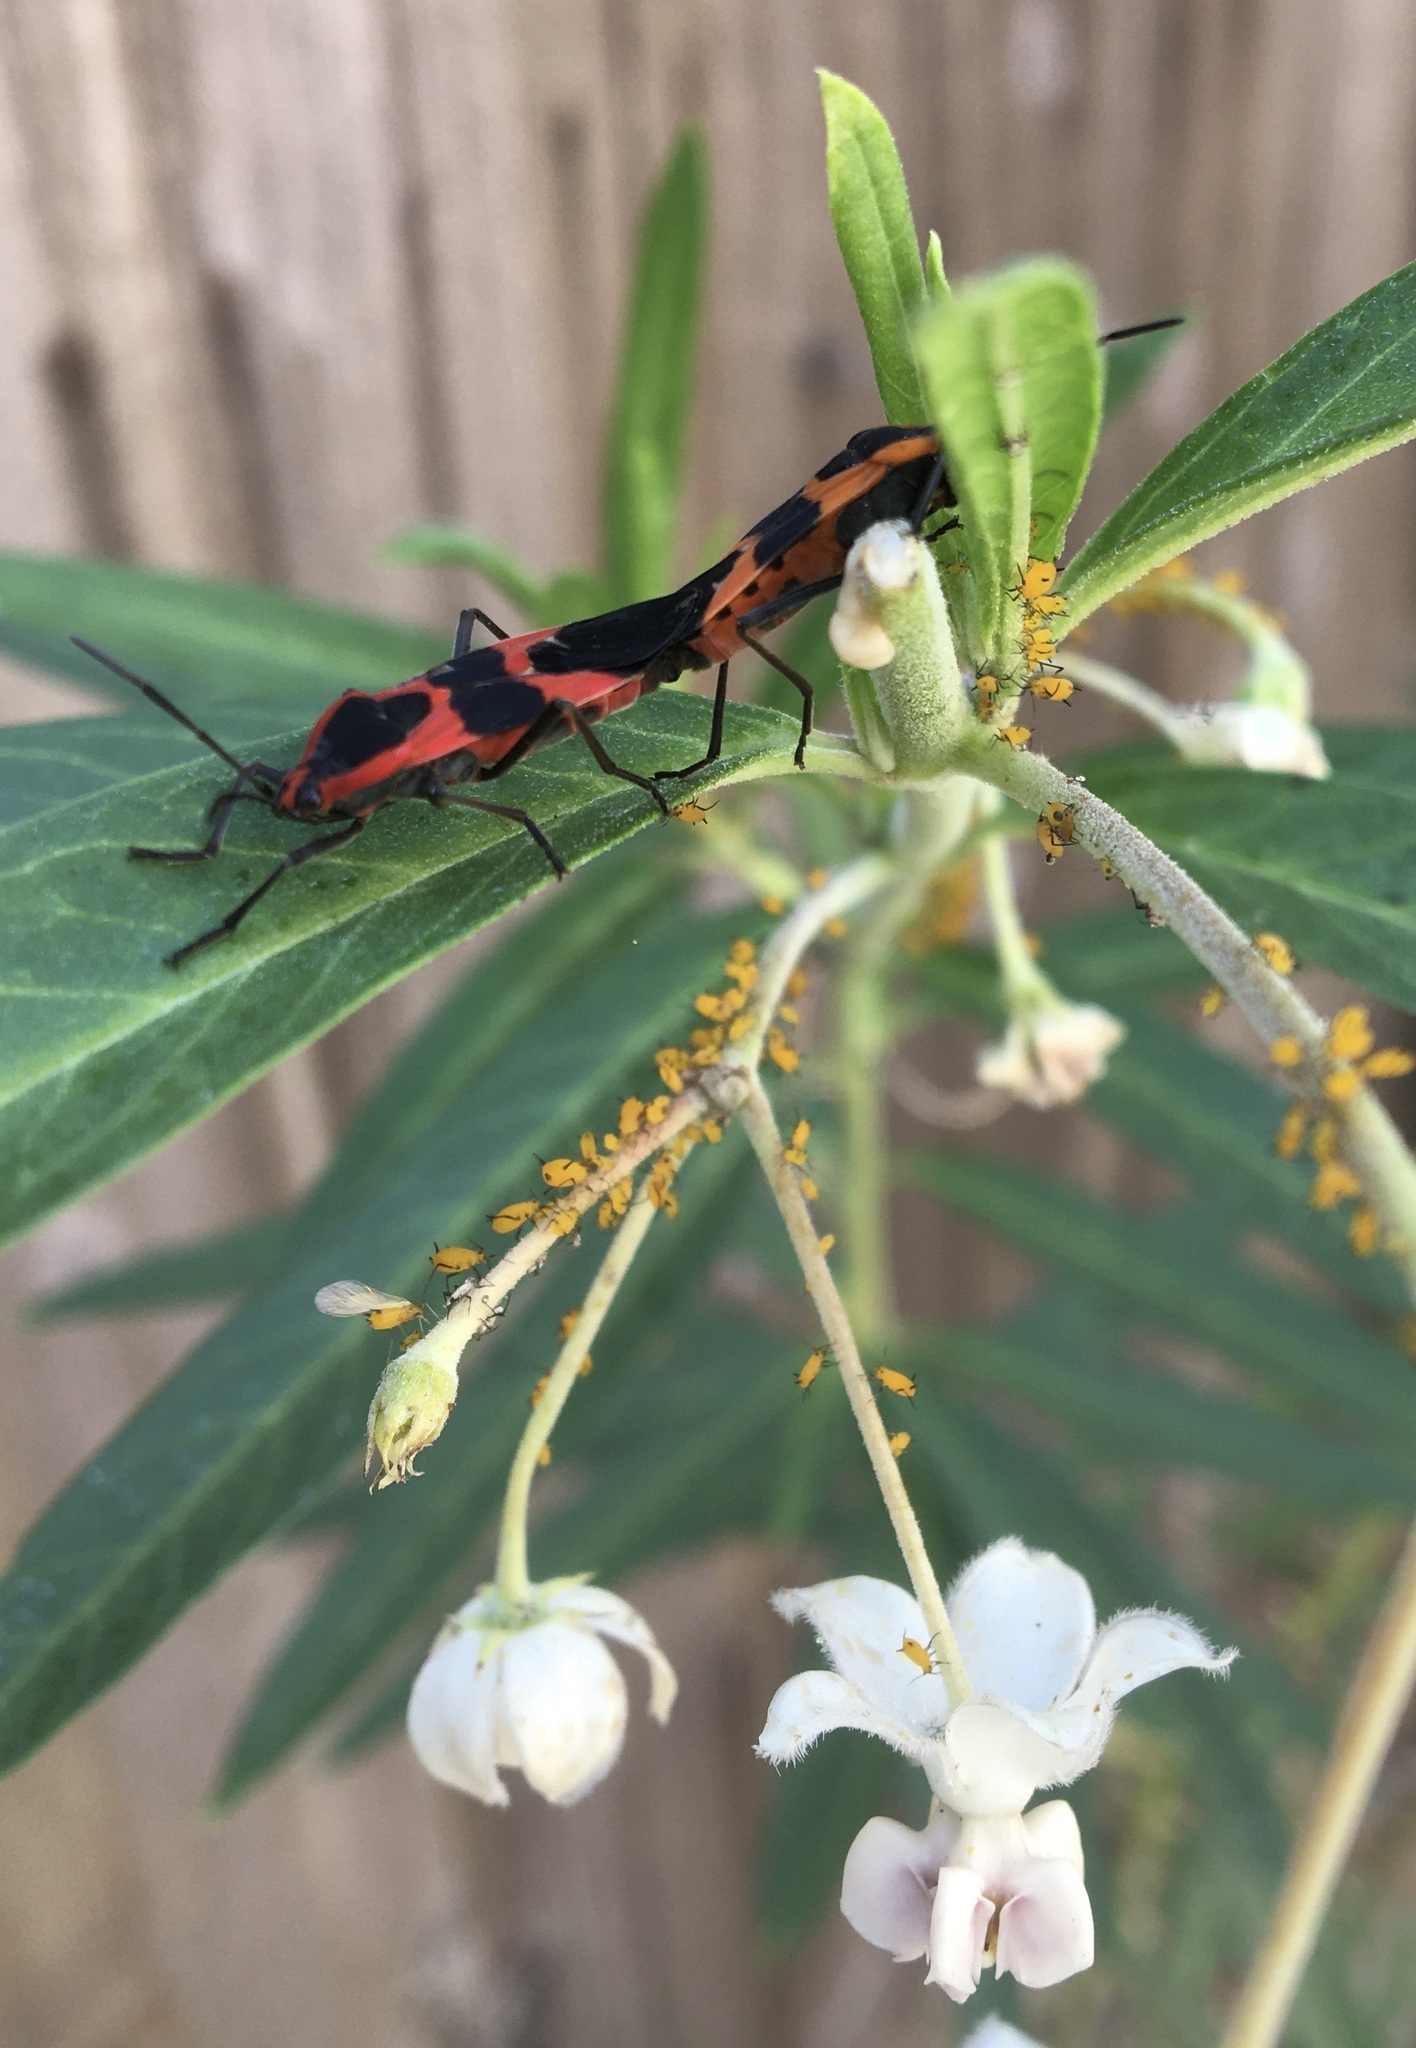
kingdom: Animalia
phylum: Arthropoda
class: Insecta
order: Hemiptera
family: Lygaeidae
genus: Oncopeltus
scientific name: Oncopeltus fasciatus
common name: Large milkweed bug
